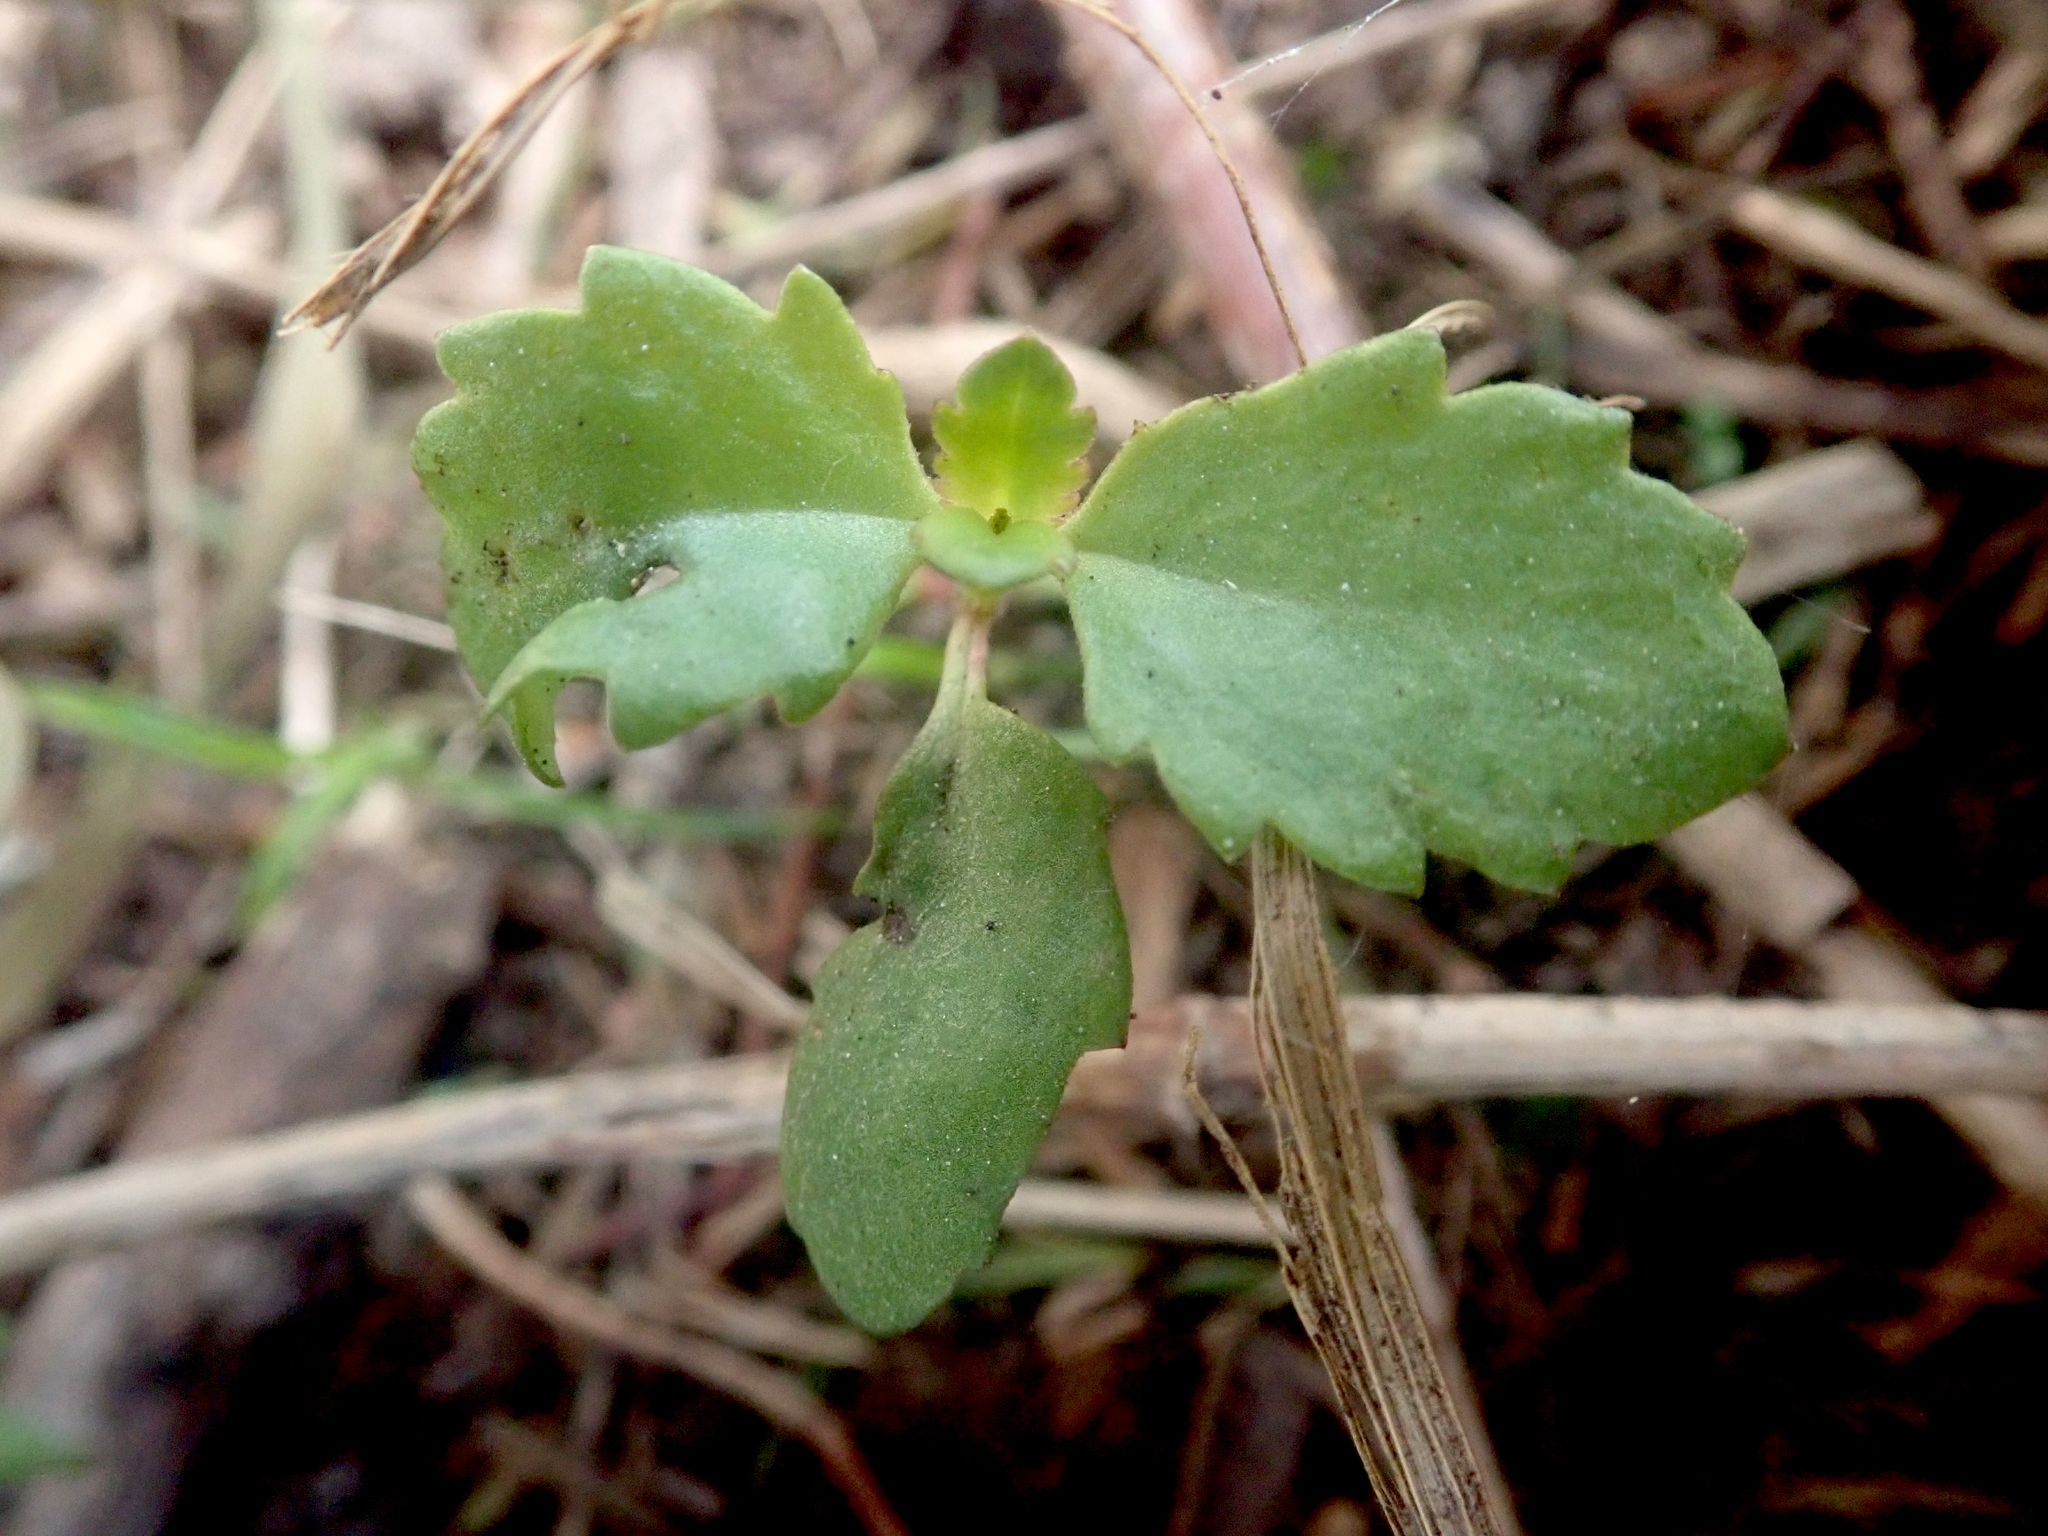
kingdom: Plantae
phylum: Tracheophyta
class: Magnoliopsida
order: Saxifragales
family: Haloragaceae
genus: Haloragis
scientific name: Haloragis erecta
